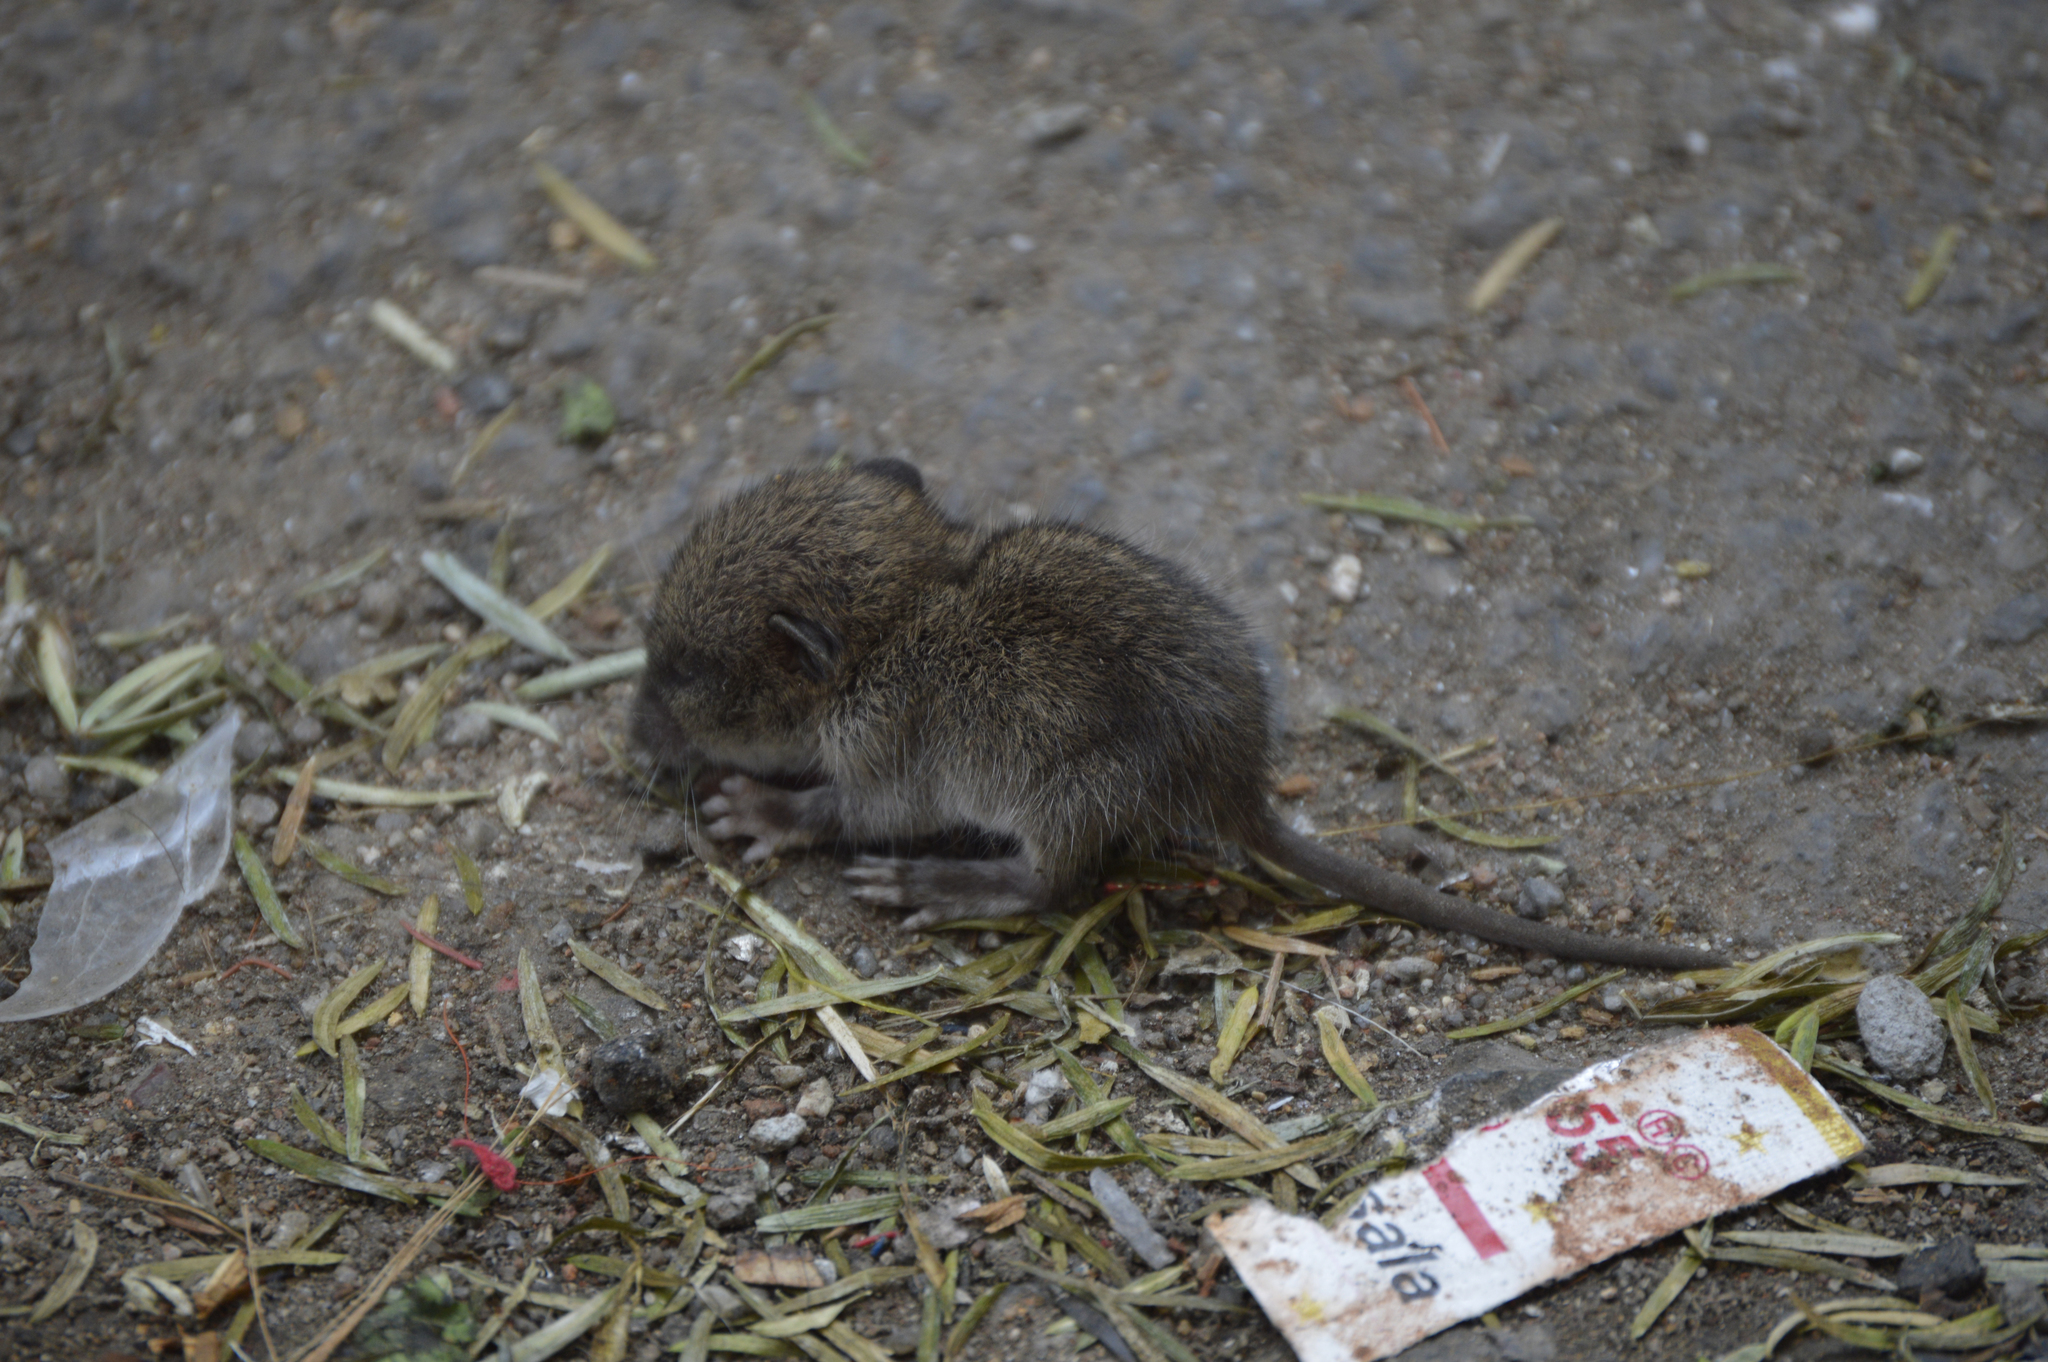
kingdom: Animalia
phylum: Chordata
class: Mammalia
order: Rodentia
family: Muridae
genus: Rattus
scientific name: Rattus norvegicus
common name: Brown rat
